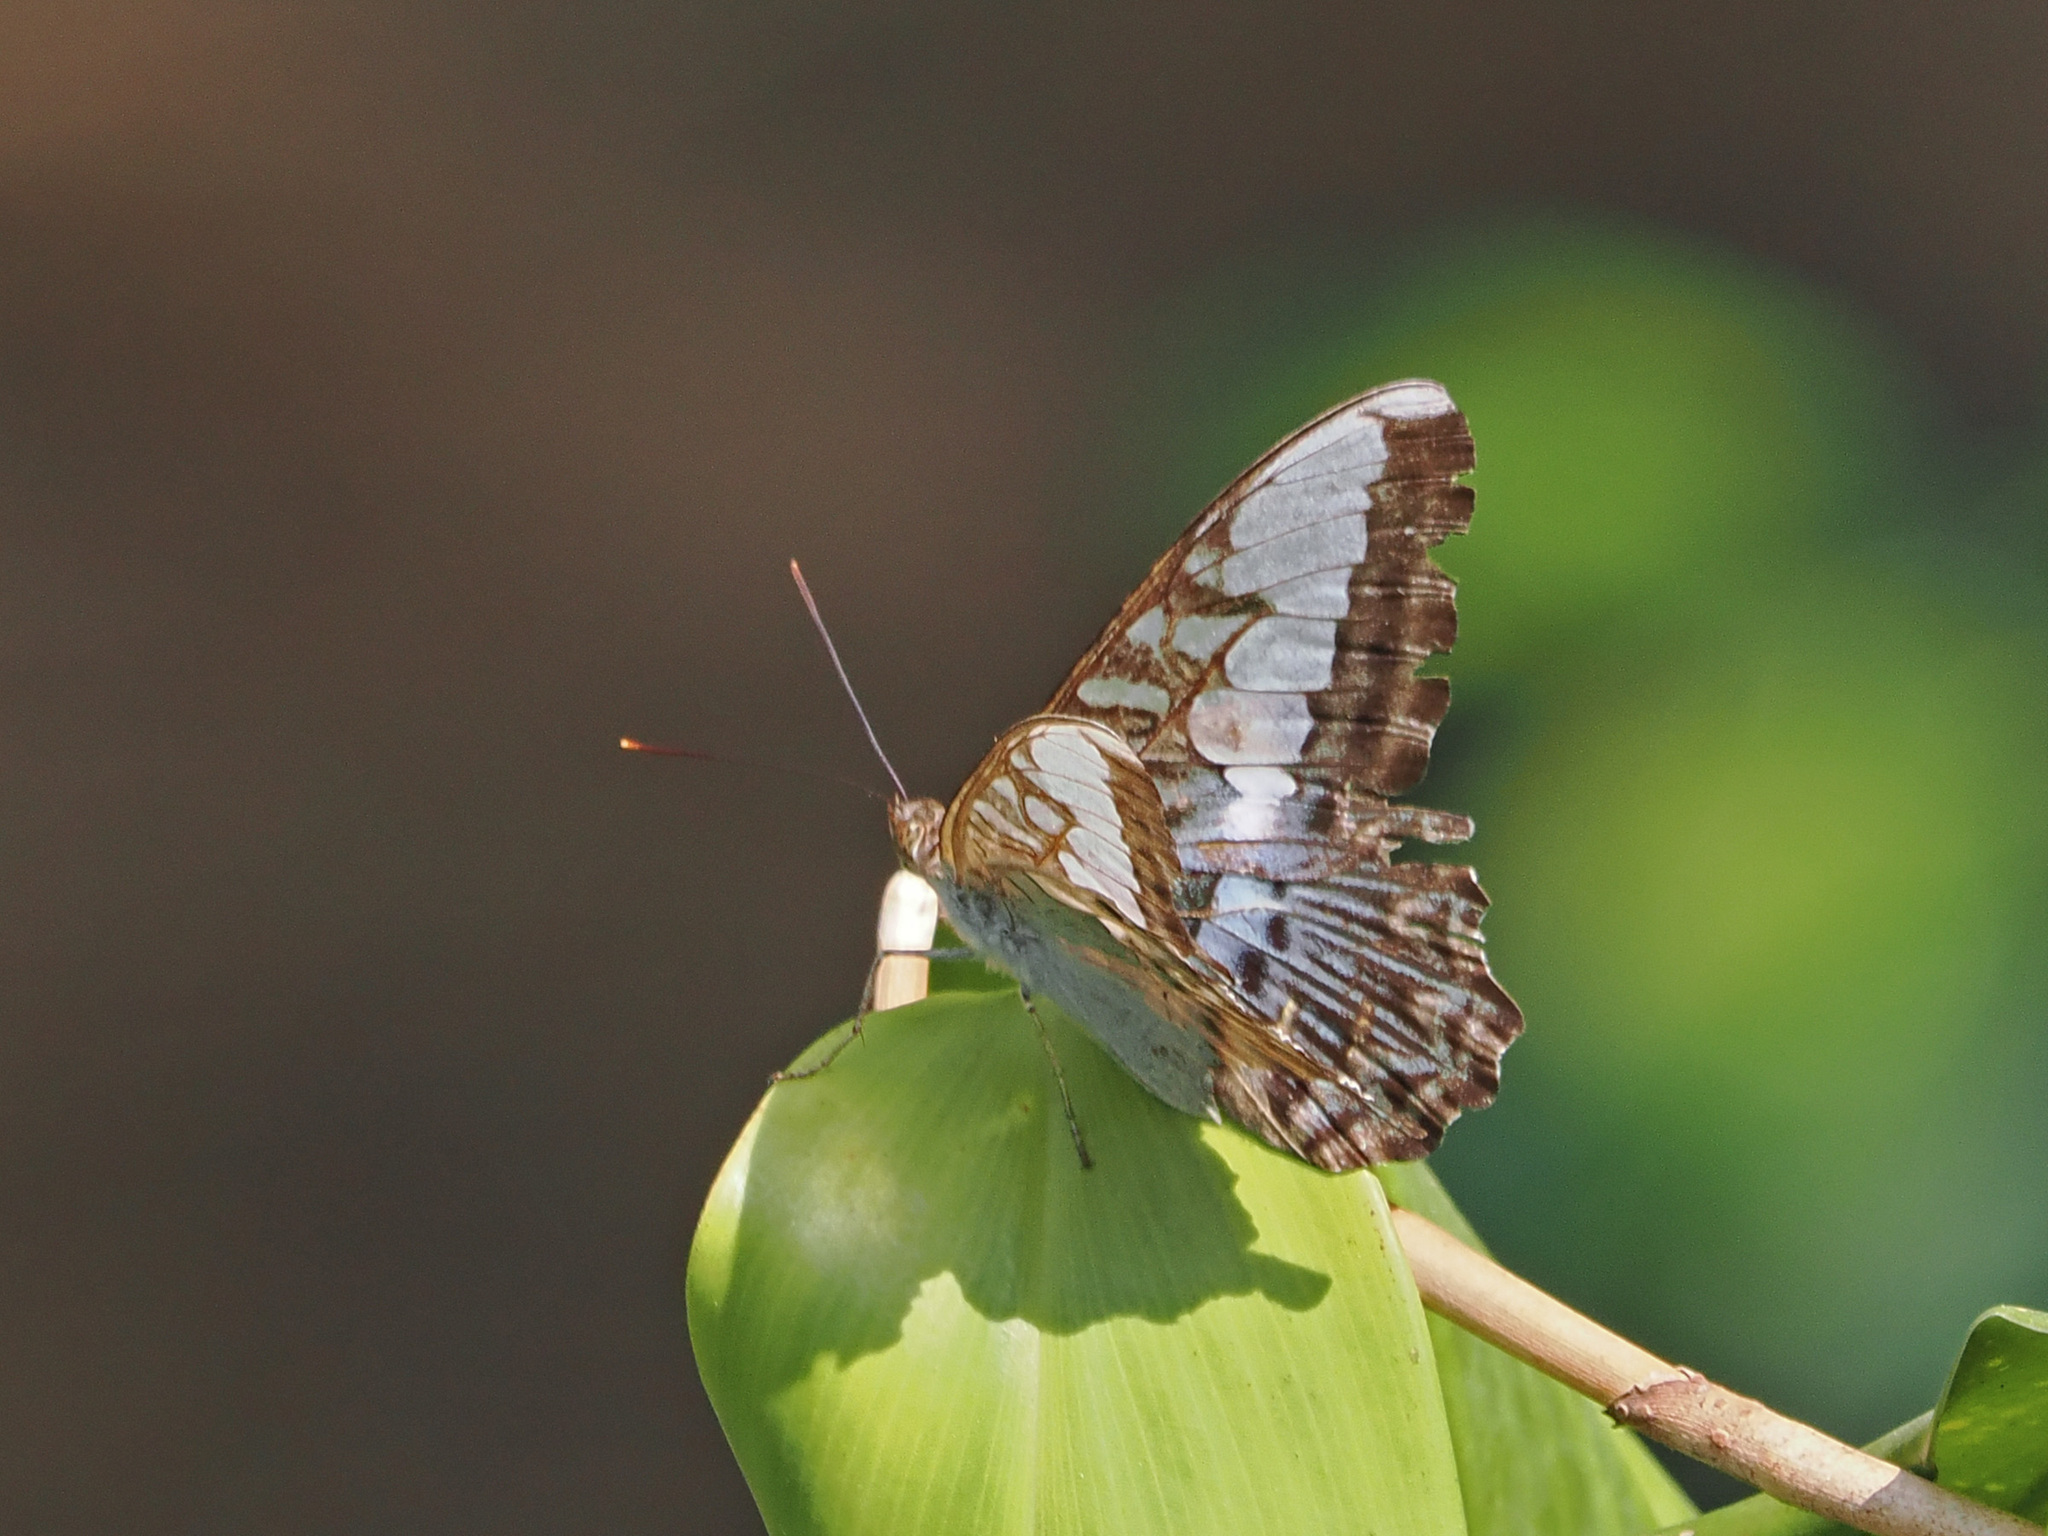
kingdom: Animalia
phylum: Arthropoda
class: Insecta
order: Lepidoptera
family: Nymphalidae
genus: Kallima
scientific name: Kallima sylvia
